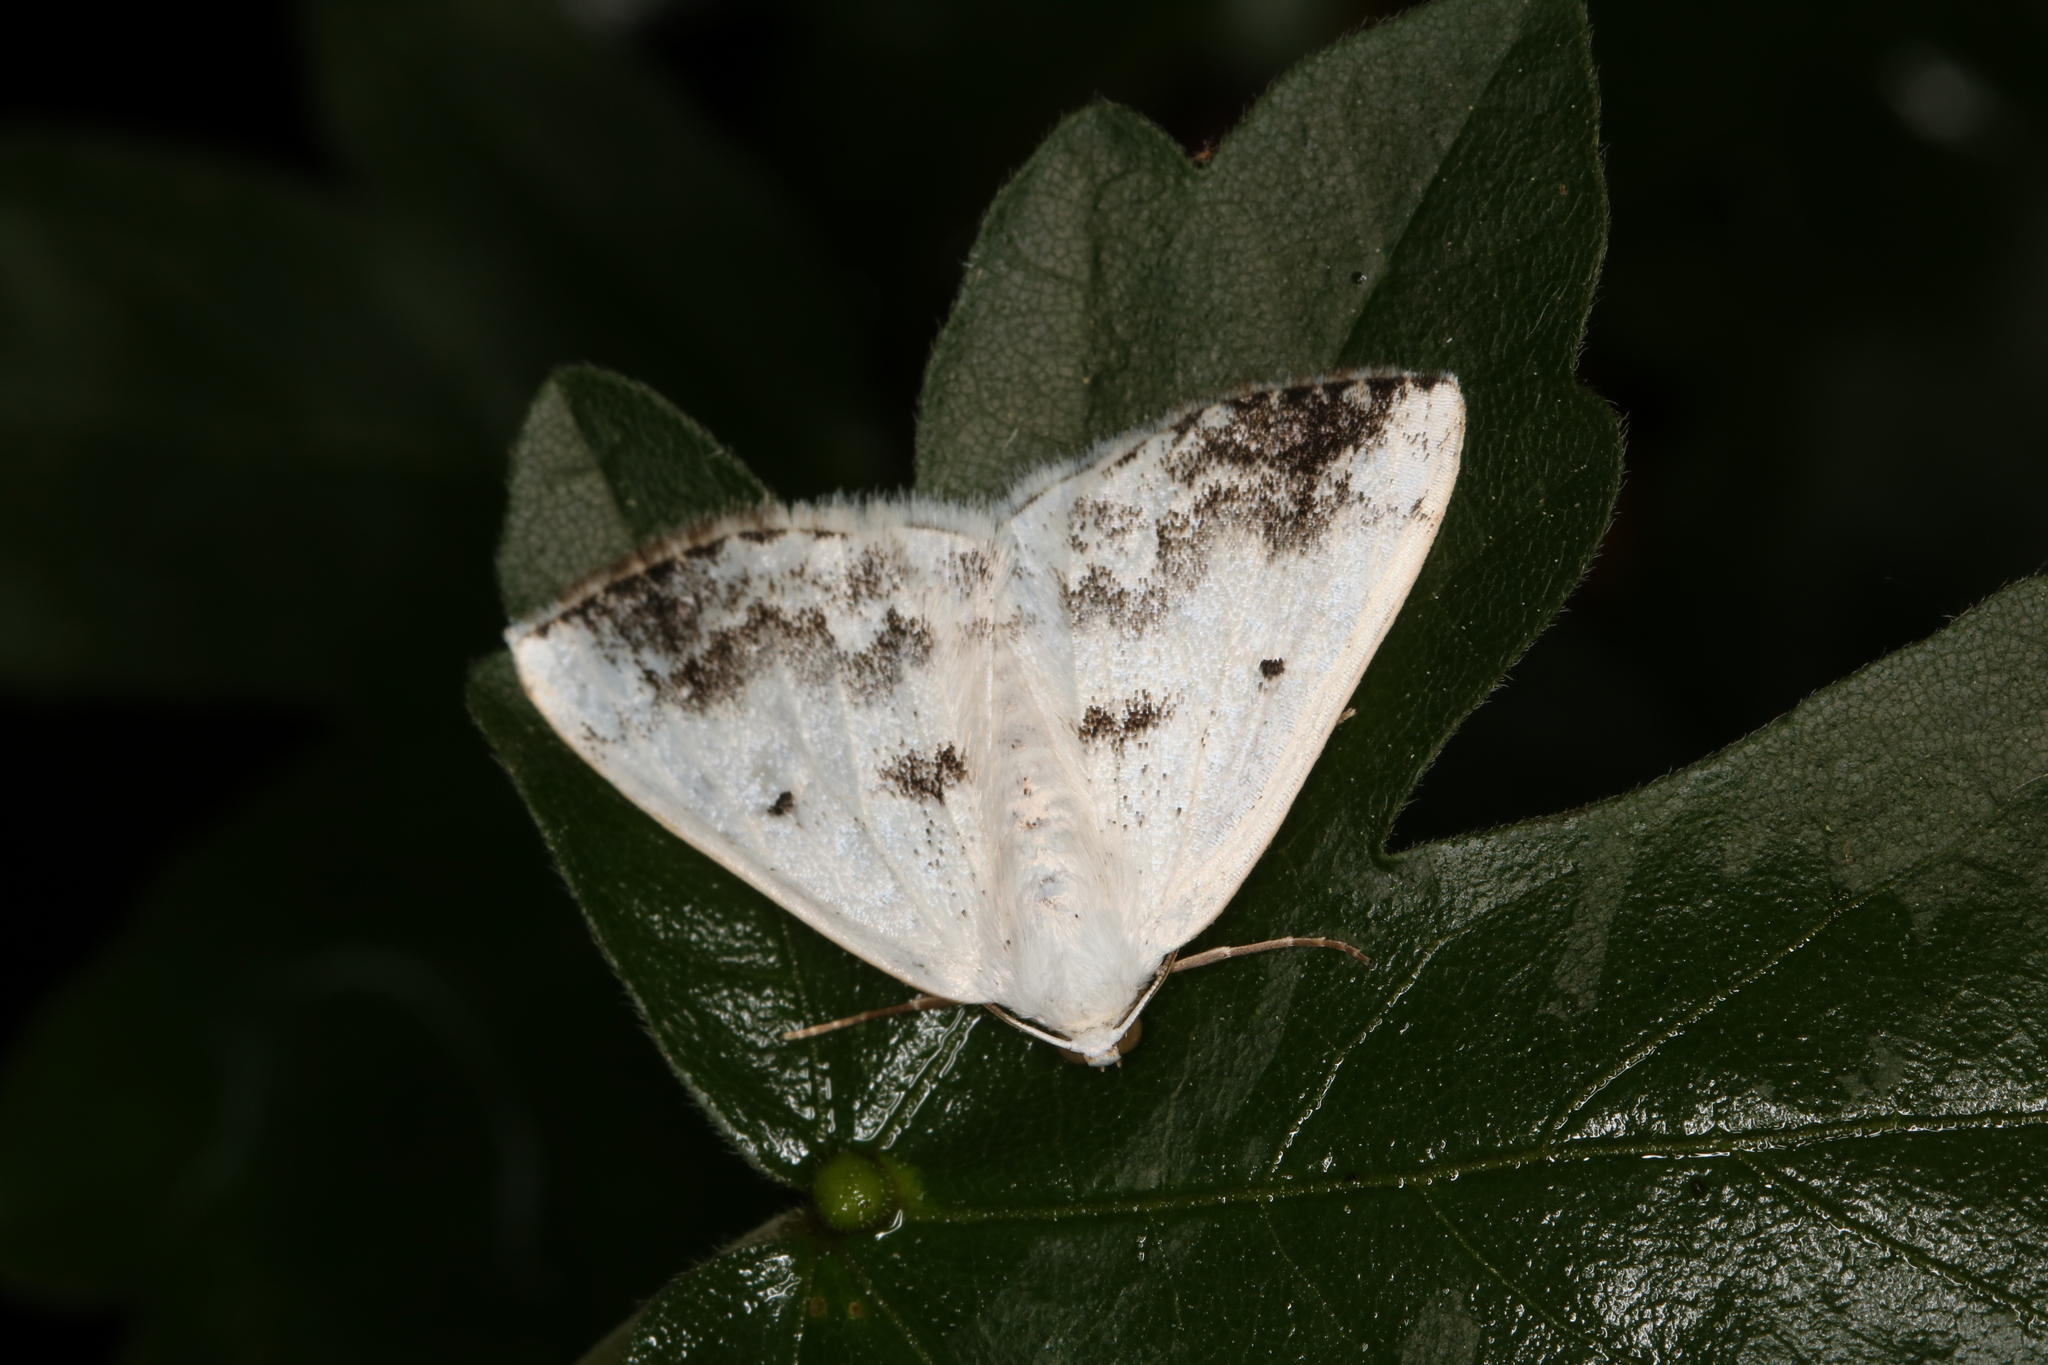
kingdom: Animalia
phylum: Arthropoda
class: Insecta
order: Lepidoptera
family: Geometridae
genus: Lomographa
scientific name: Lomographa temerata
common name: Clouded silver
